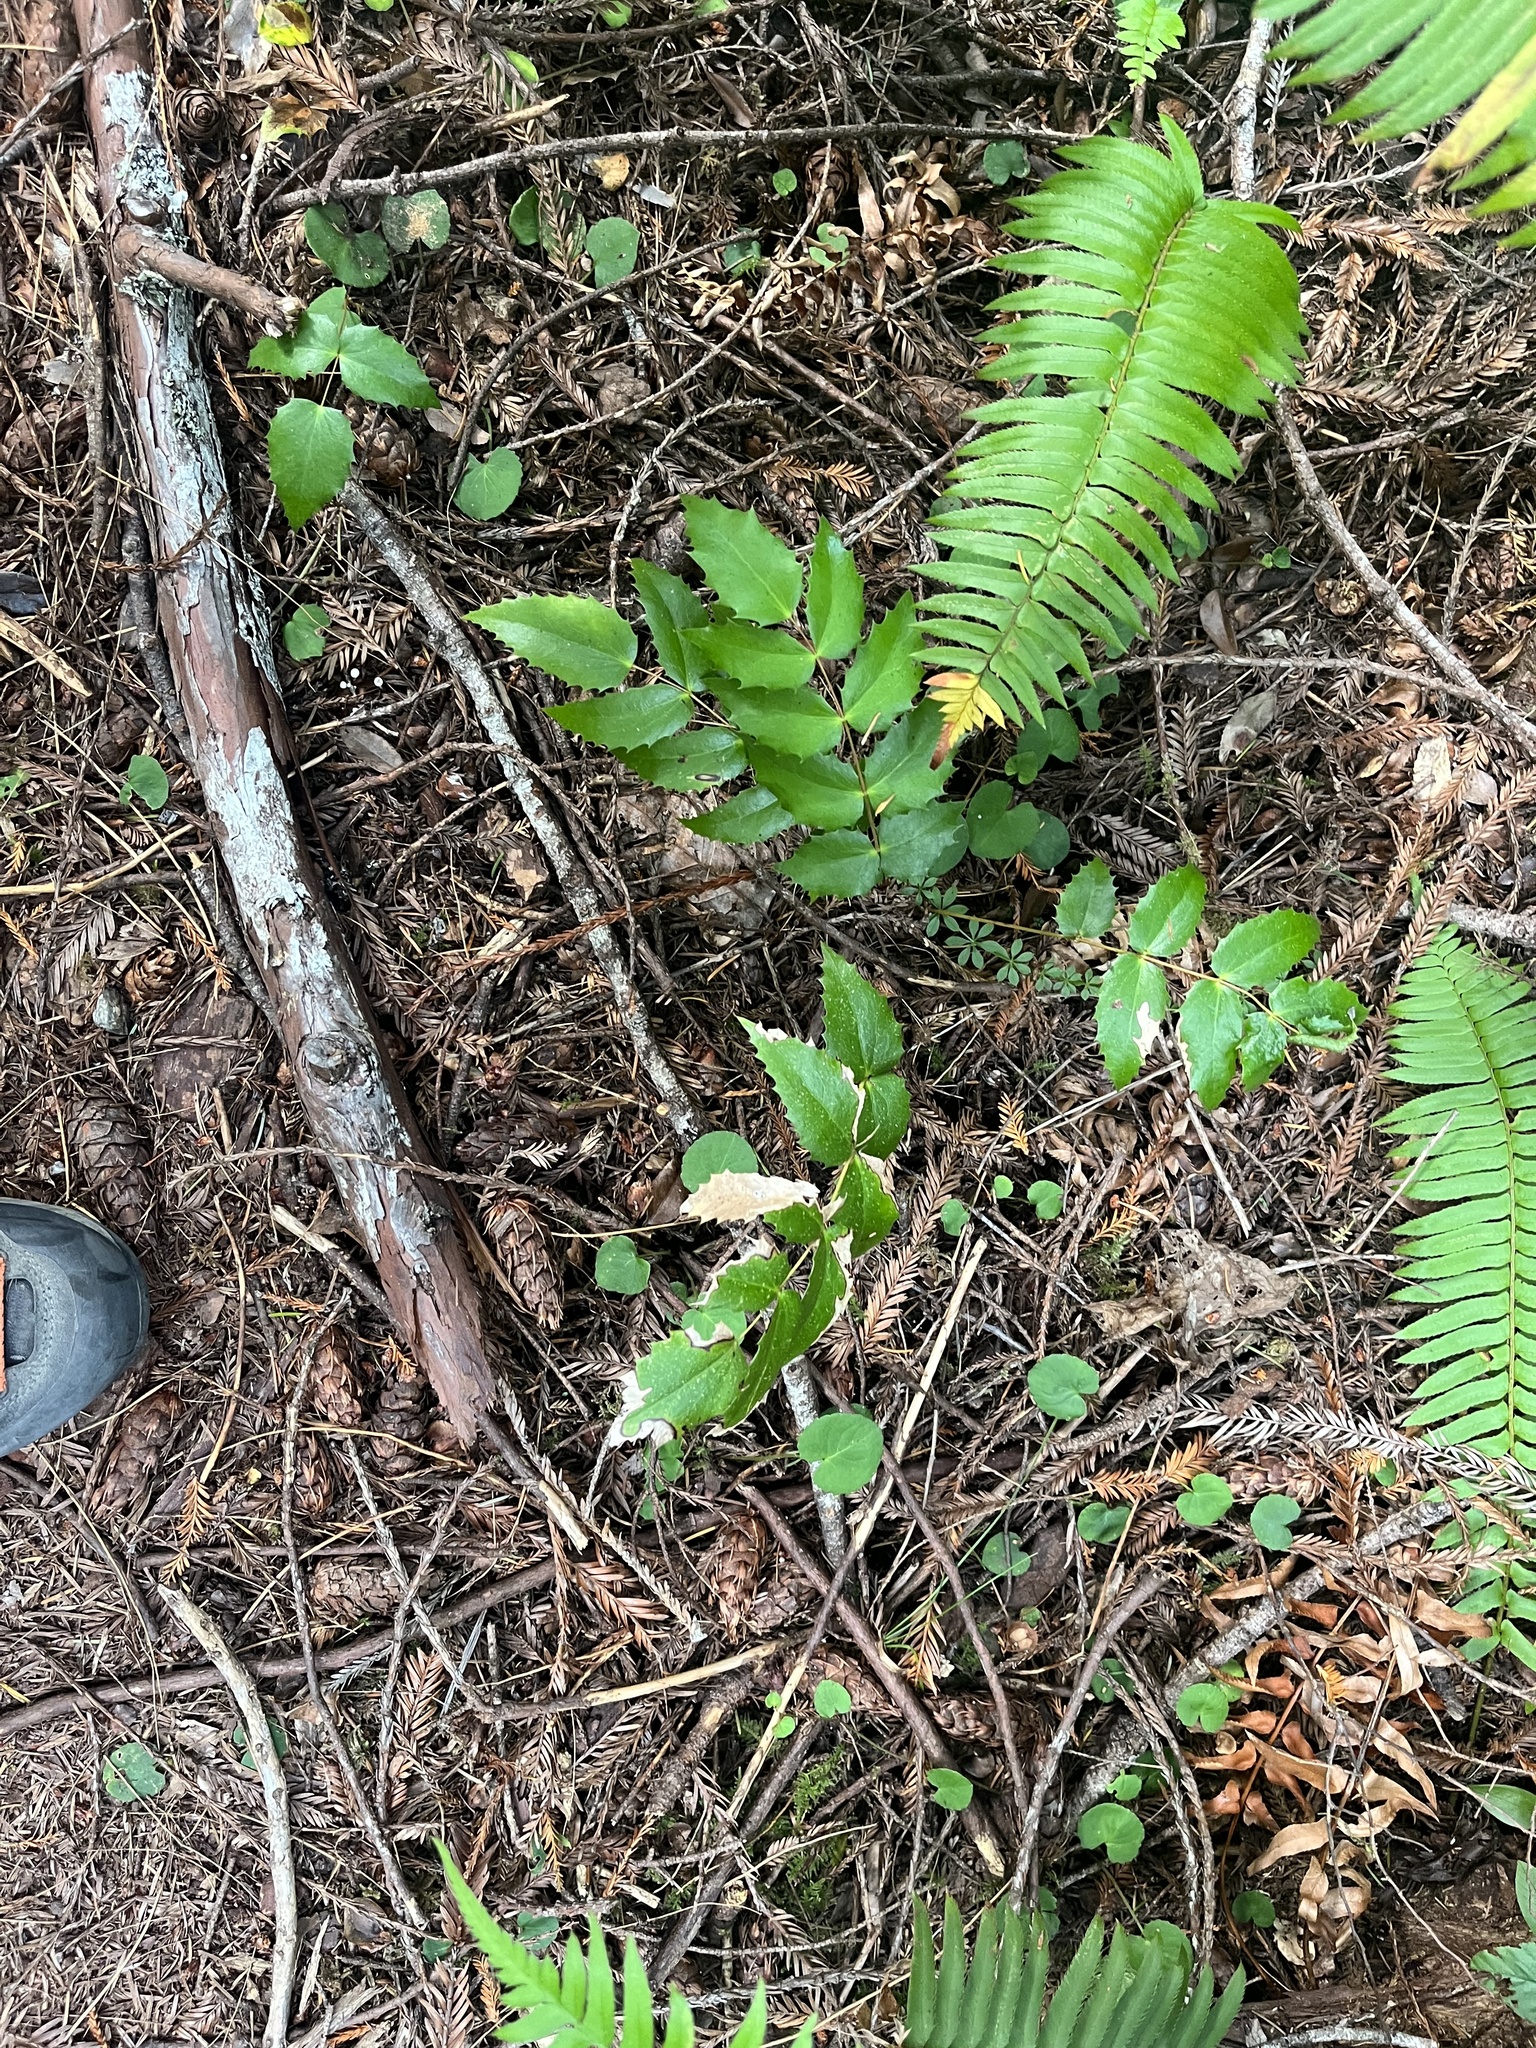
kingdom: Plantae
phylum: Tracheophyta
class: Magnoliopsida
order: Ranunculales
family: Berberidaceae
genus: Mahonia
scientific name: Mahonia nervosa
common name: Cascade oregon-grape
